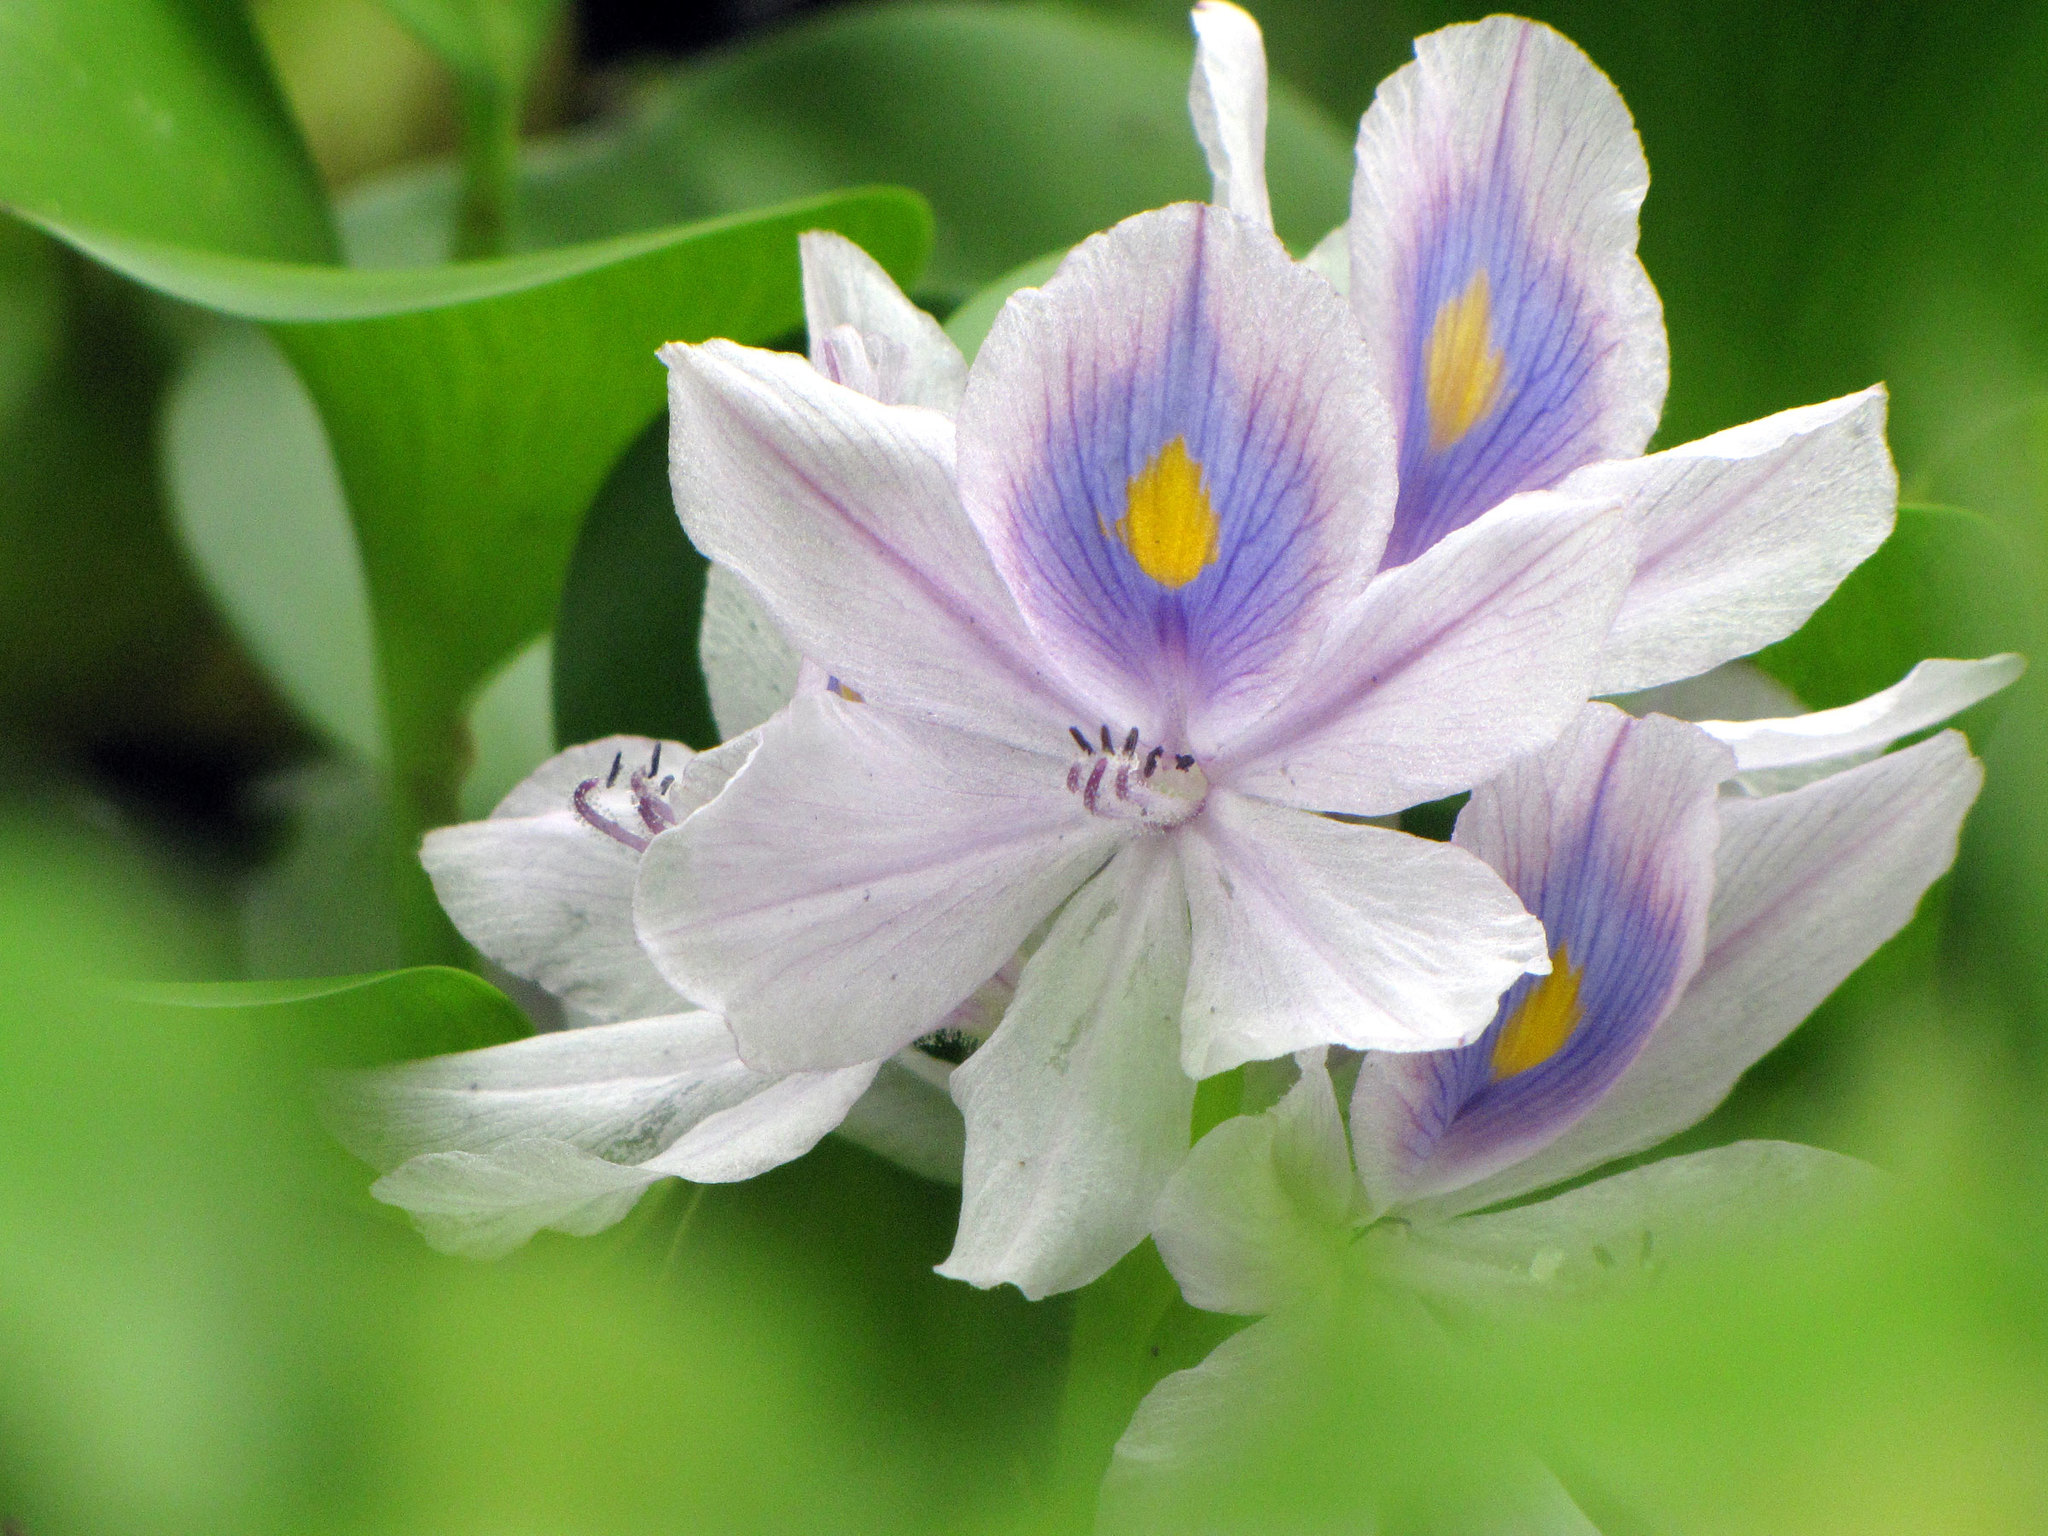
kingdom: Plantae
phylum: Tracheophyta
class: Liliopsida
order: Commelinales
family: Pontederiaceae
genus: Pontederia
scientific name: Pontederia crassipes
